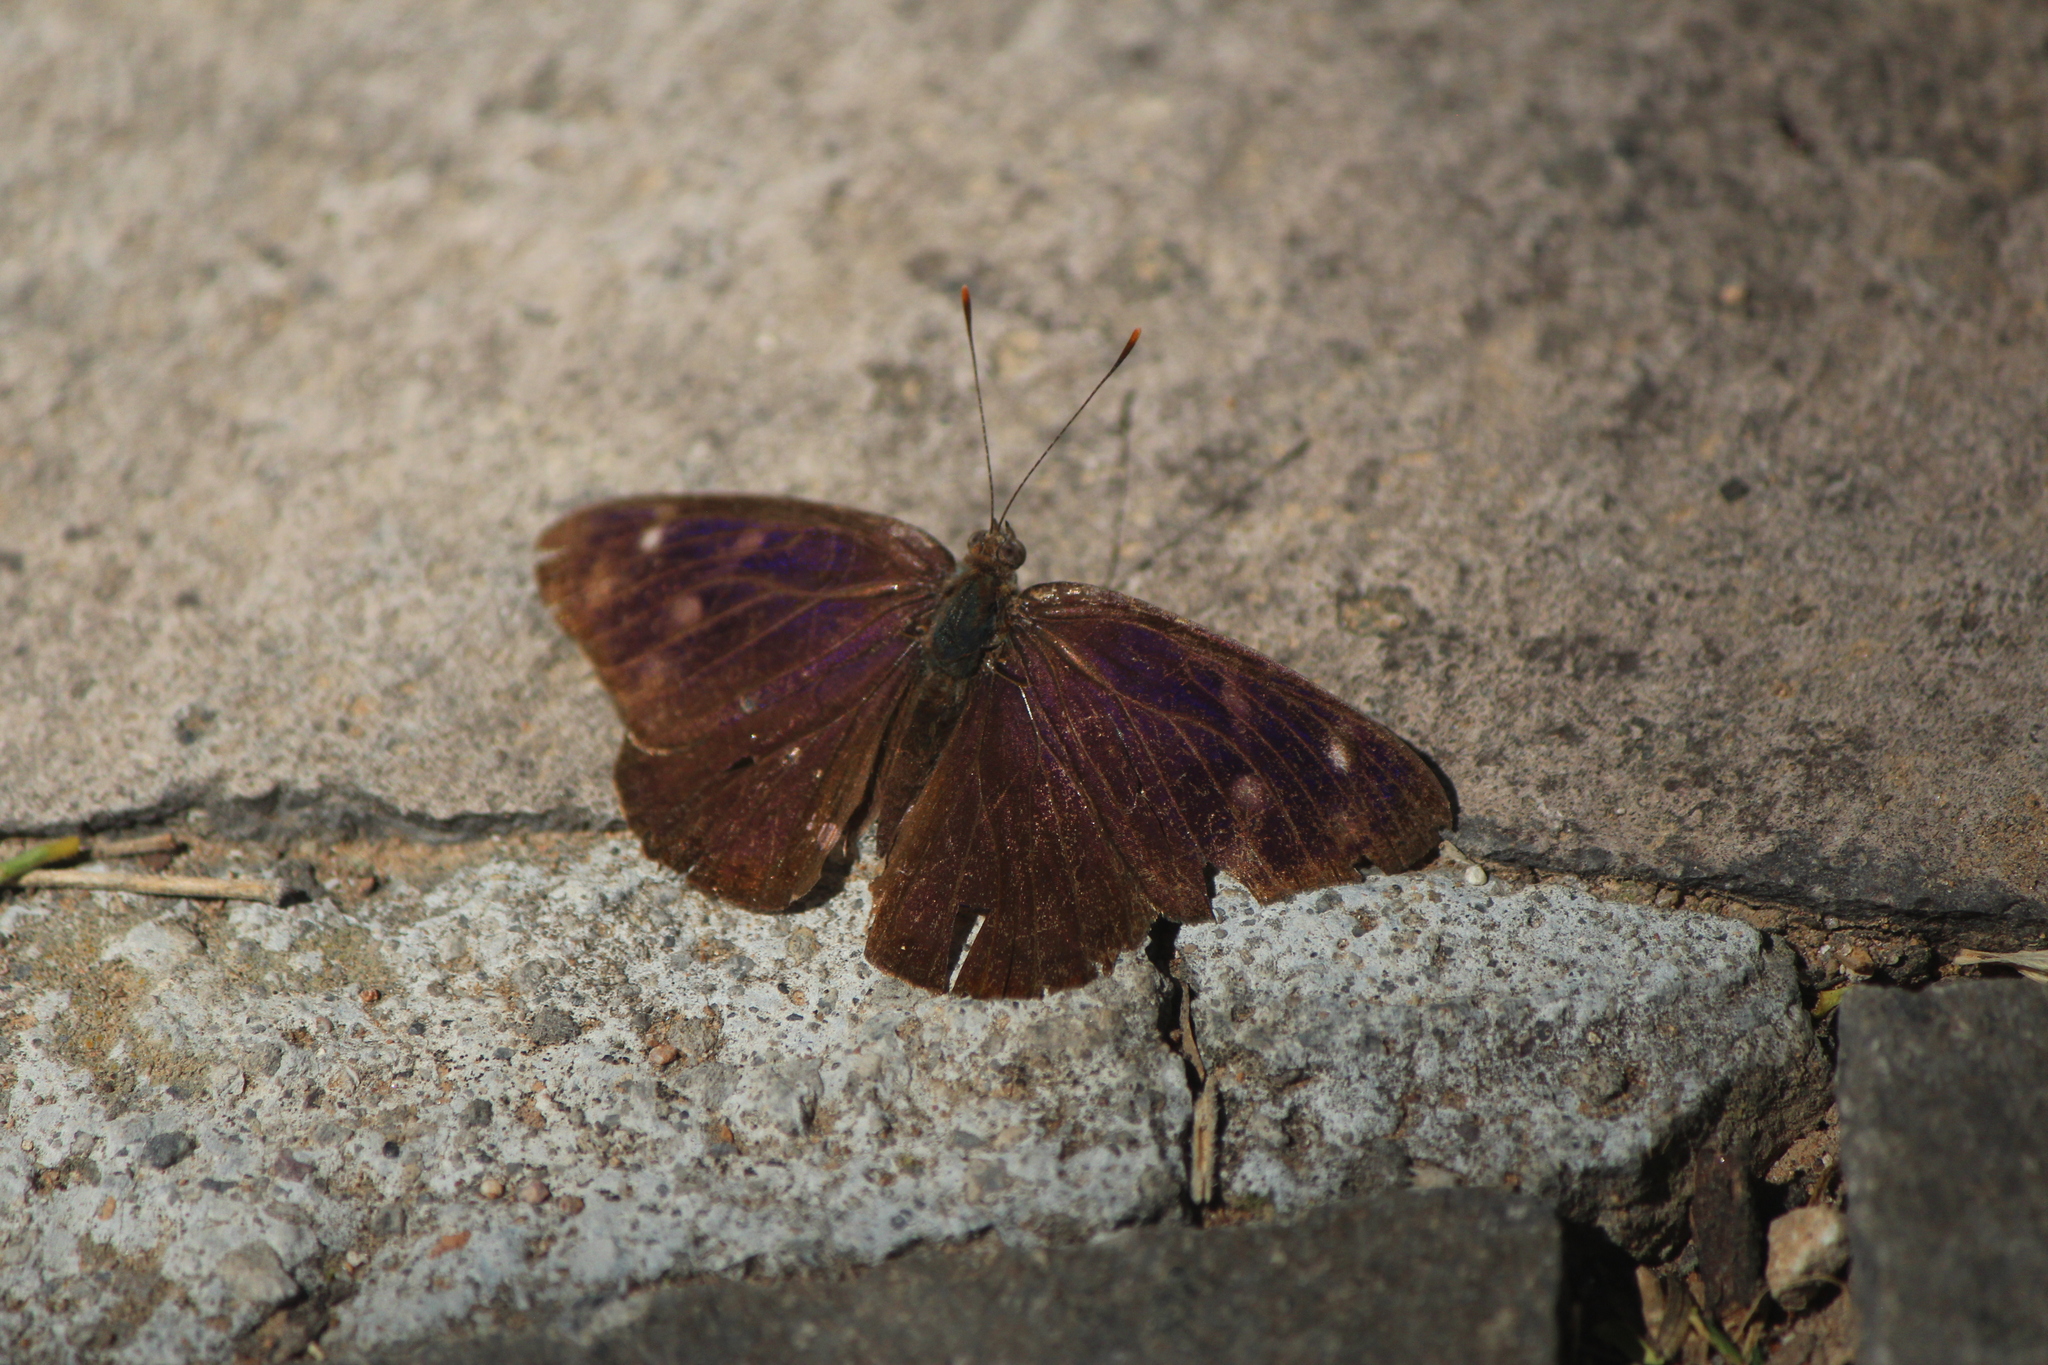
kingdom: Animalia
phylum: Arthropoda
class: Insecta
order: Lepidoptera
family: Nymphalidae
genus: Eunica
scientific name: Eunica monima
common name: Dingy purplewing
